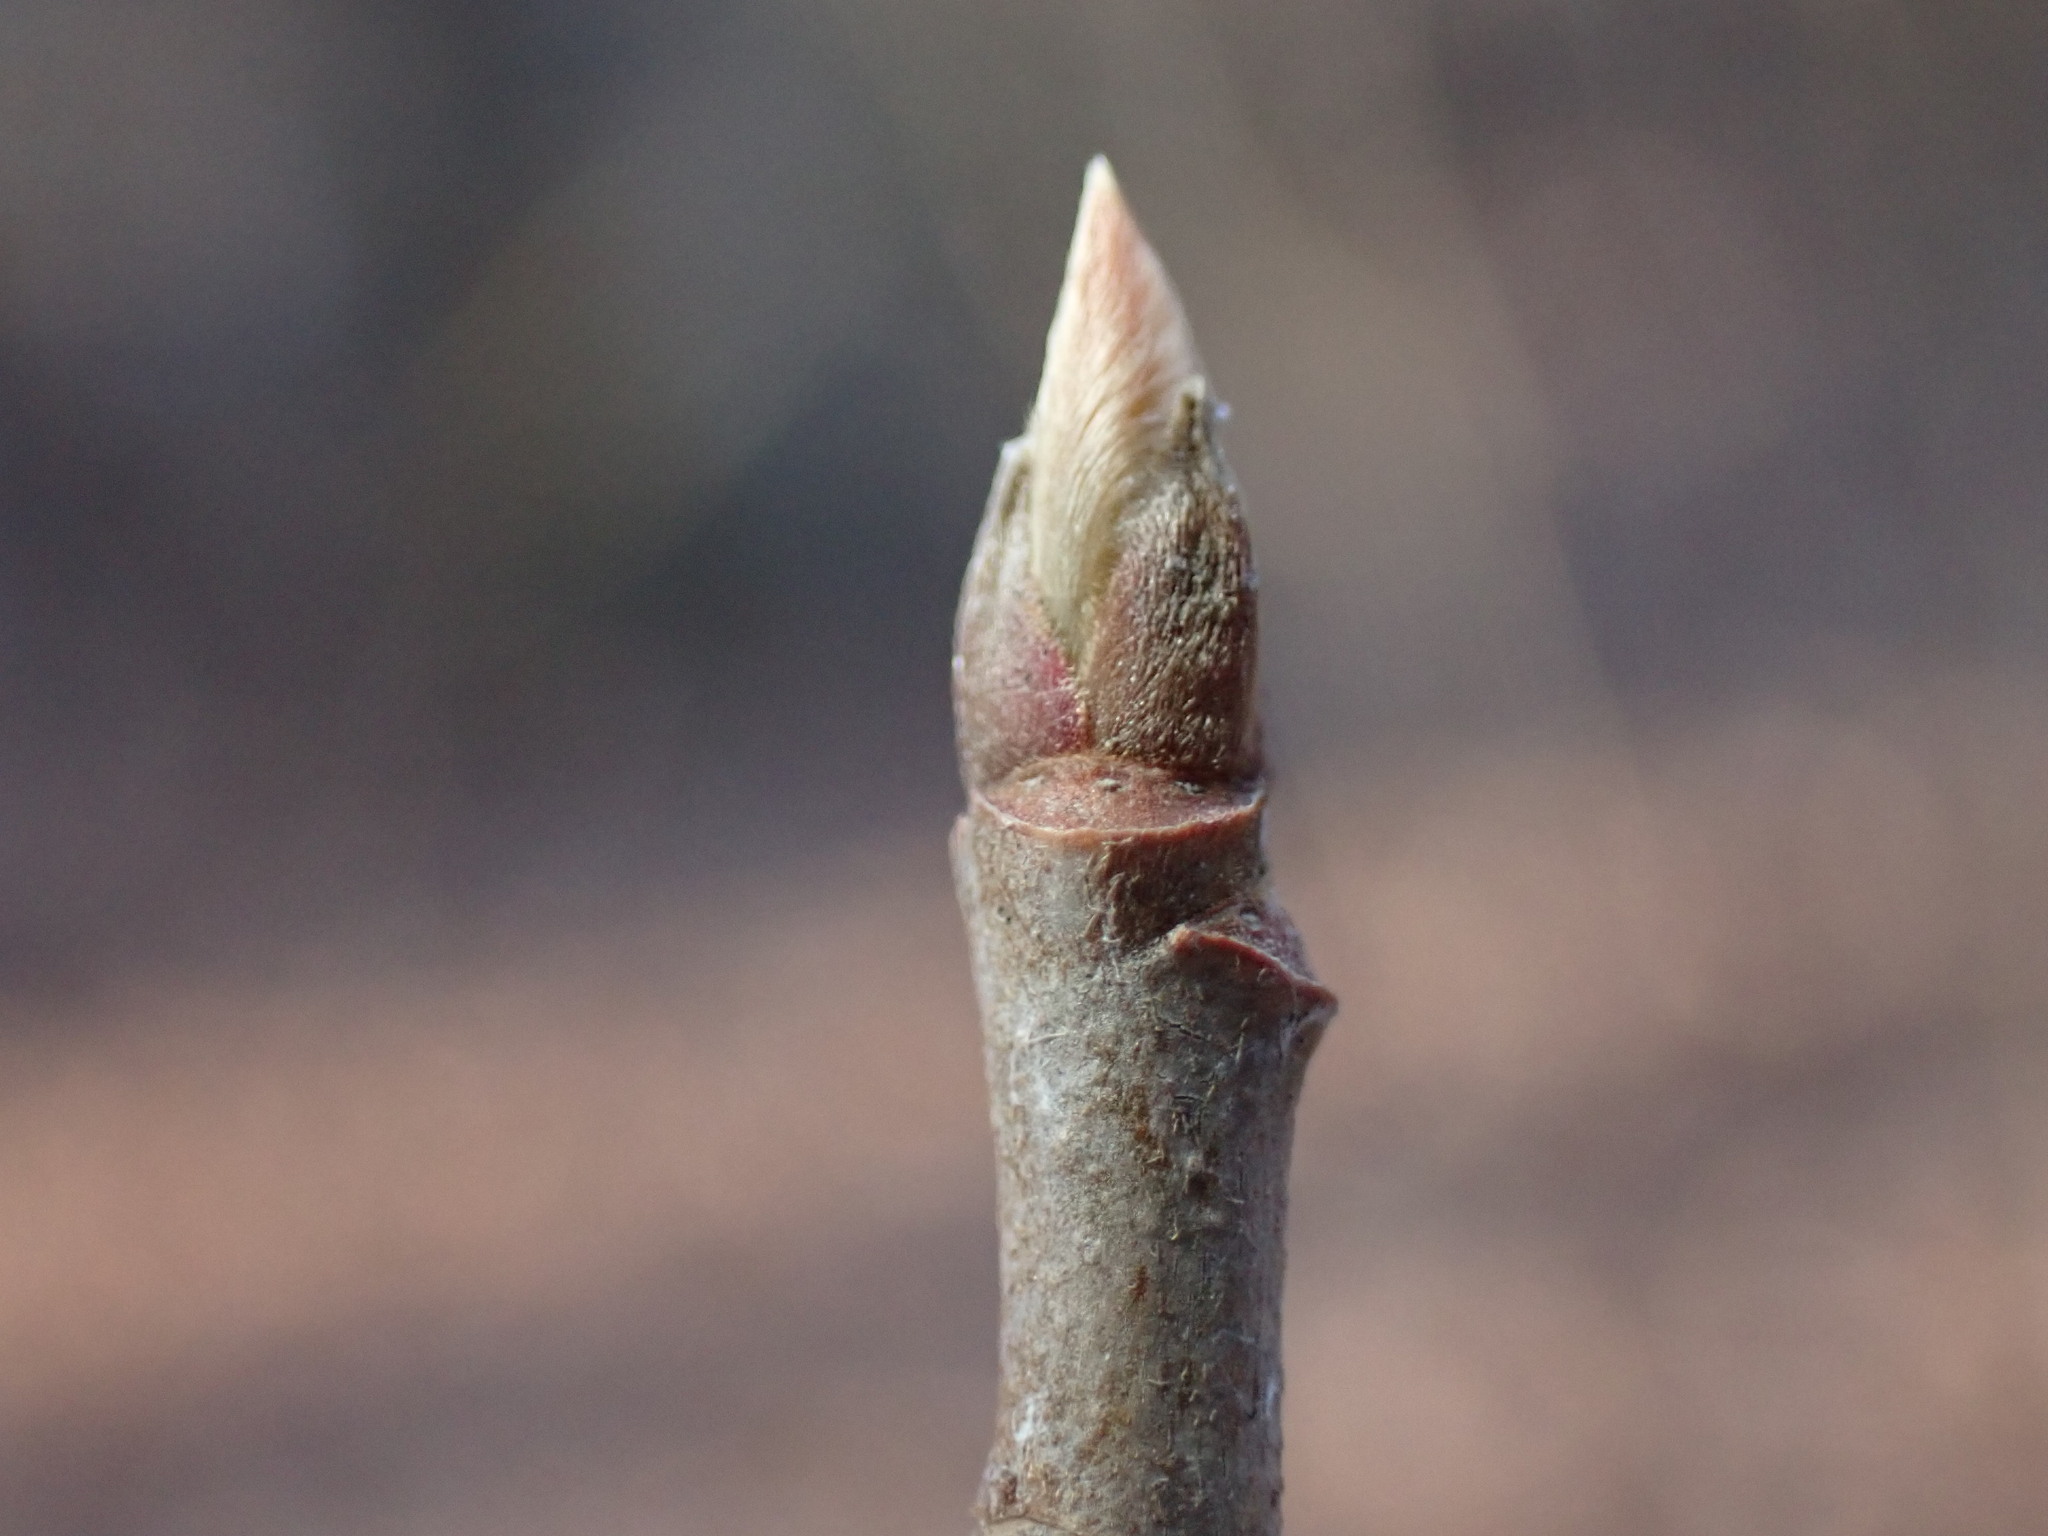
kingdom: Plantae
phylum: Tracheophyta
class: Magnoliopsida
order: Cornales
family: Nyssaceae
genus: Nyssa
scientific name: Nyssa sylvatica
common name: Black tupelo
